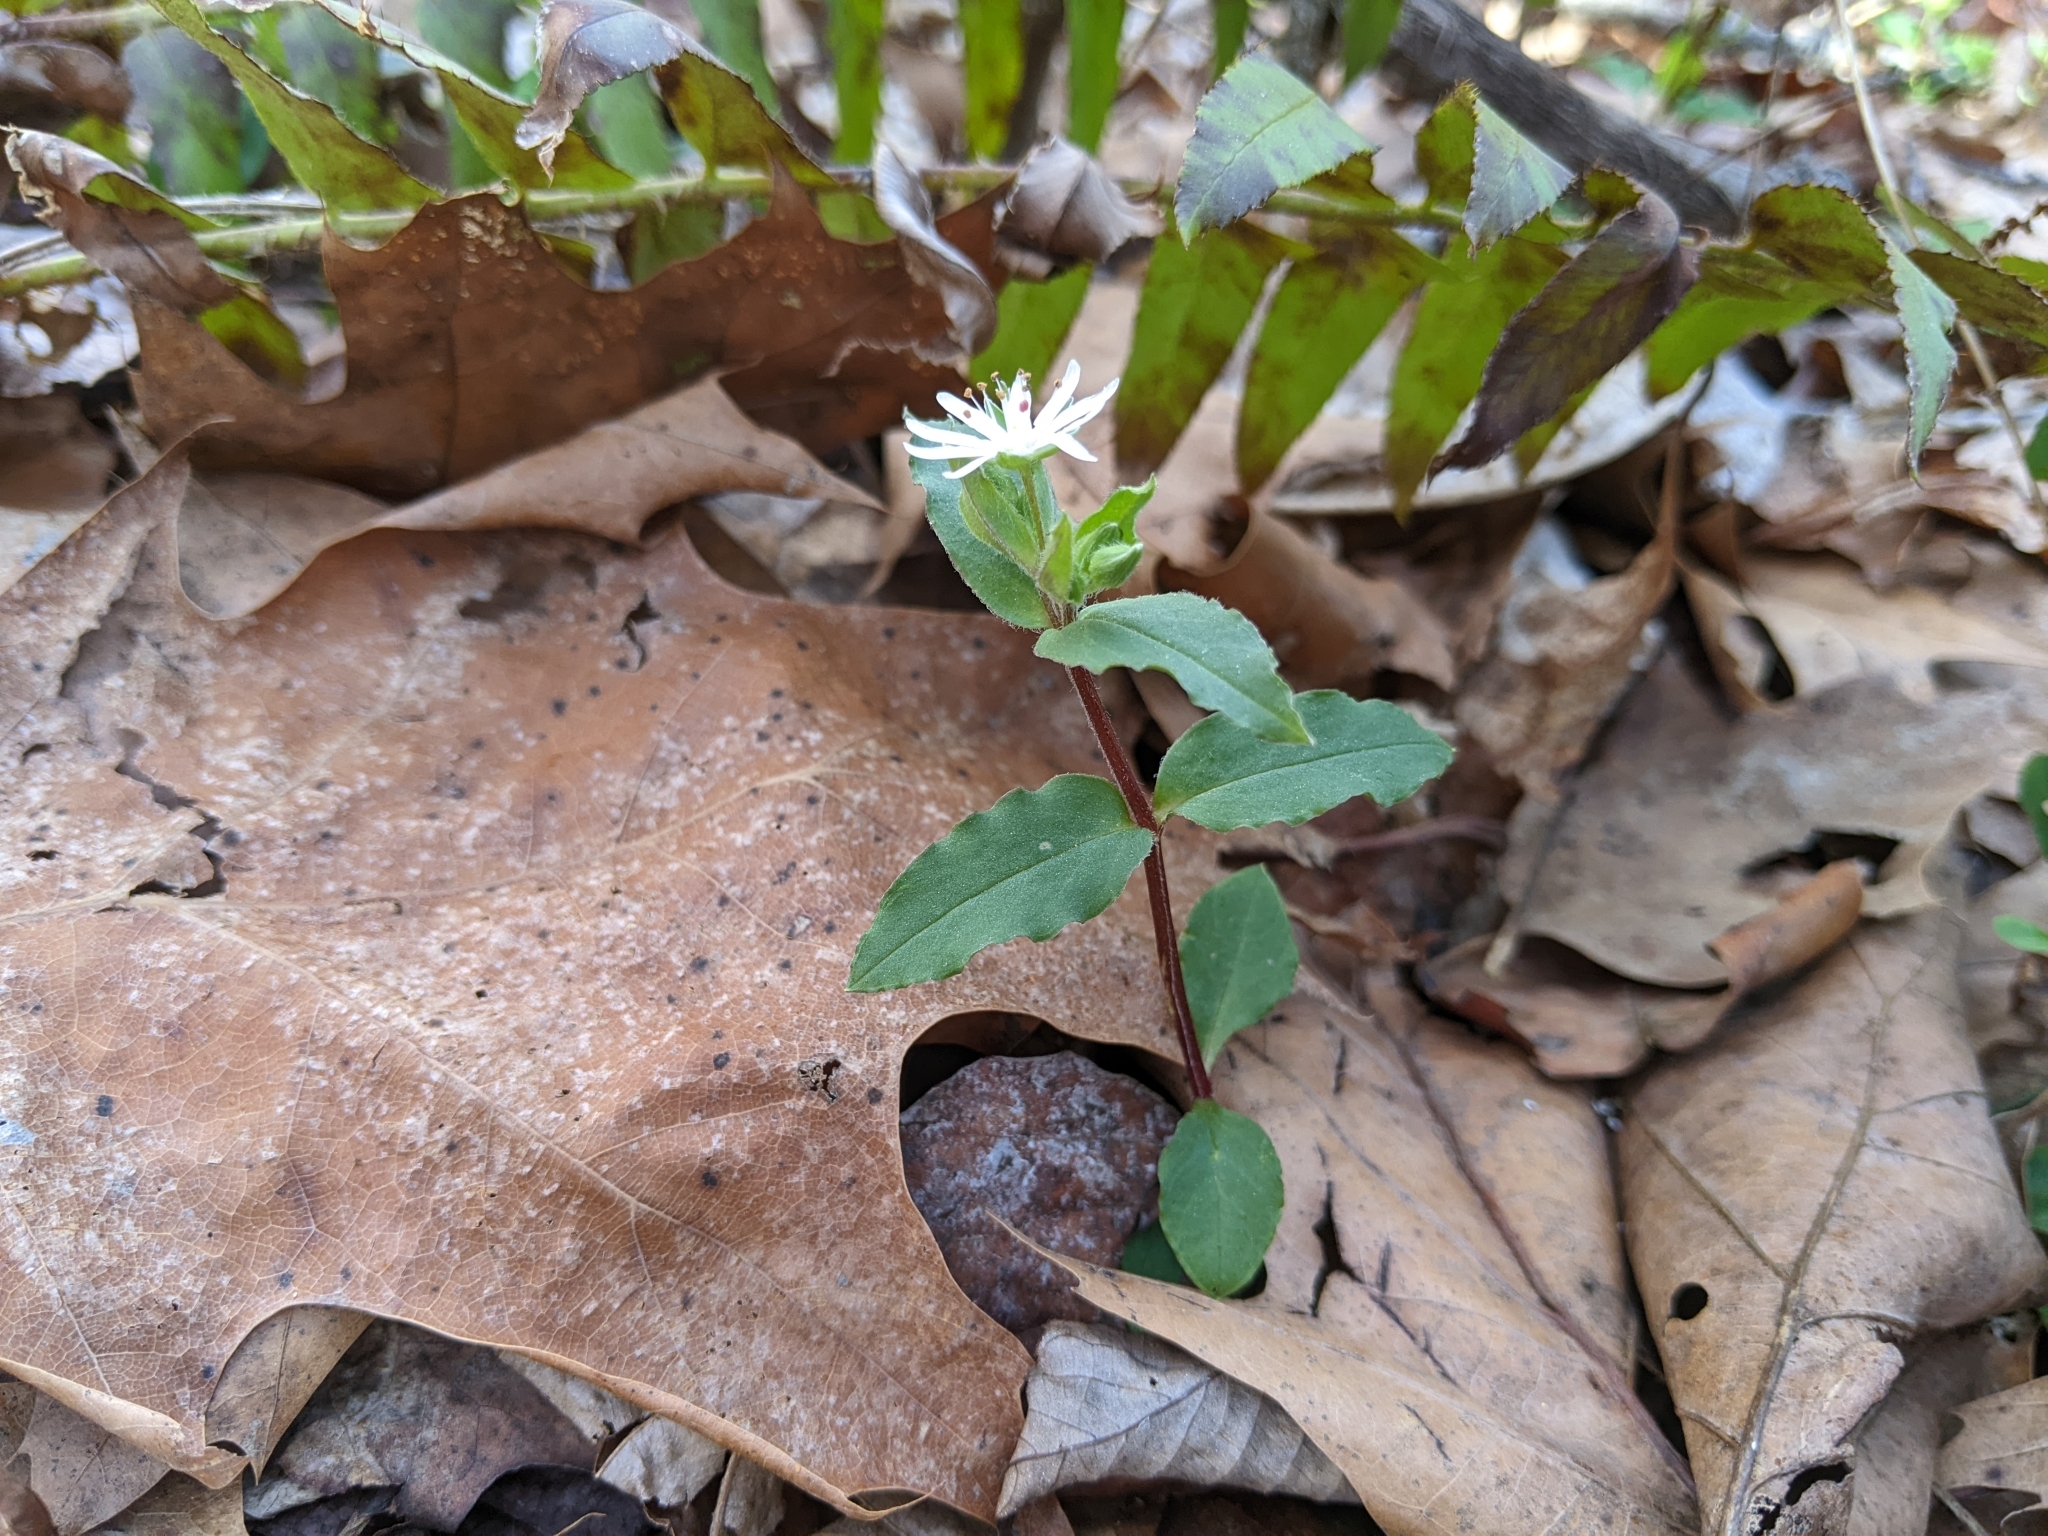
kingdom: Plantae
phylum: Tracheophyta
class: Magnoliopsida
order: Caryophyllales
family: Caryophyllaceae
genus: Stellaria
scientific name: Stellaria pubera
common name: Star chickweed
